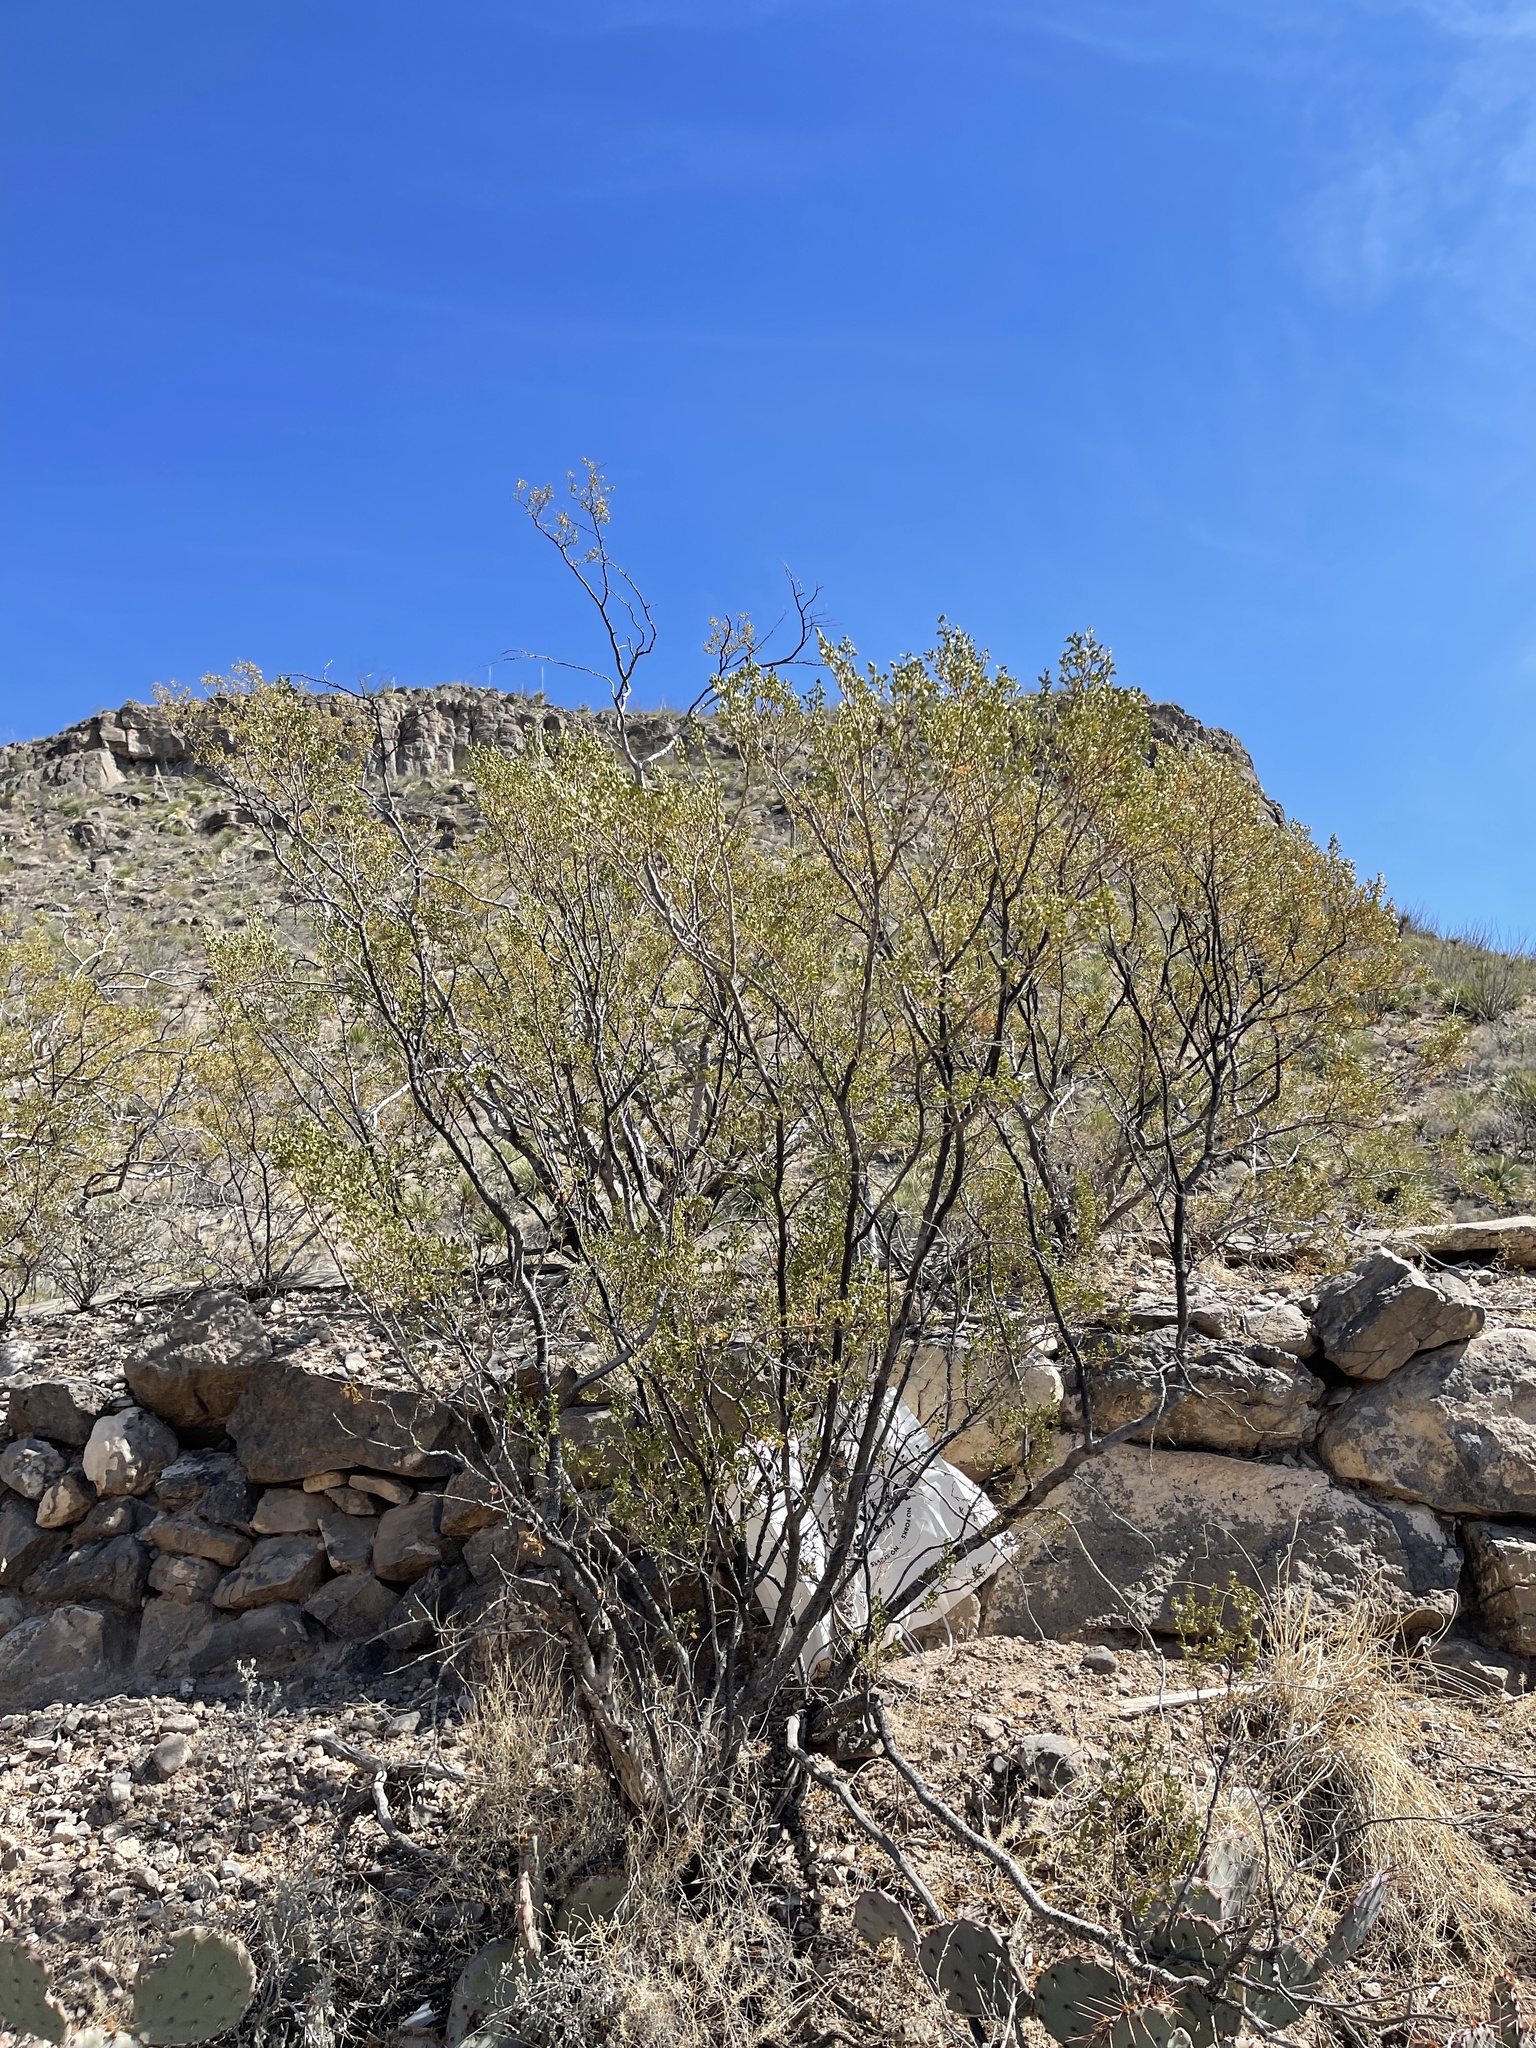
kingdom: Plantae
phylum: Tracheophyta
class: Magnoliopsida
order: Zygophyllales
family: Zygophyllaceae
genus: Larrea
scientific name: Larrea tridentata
